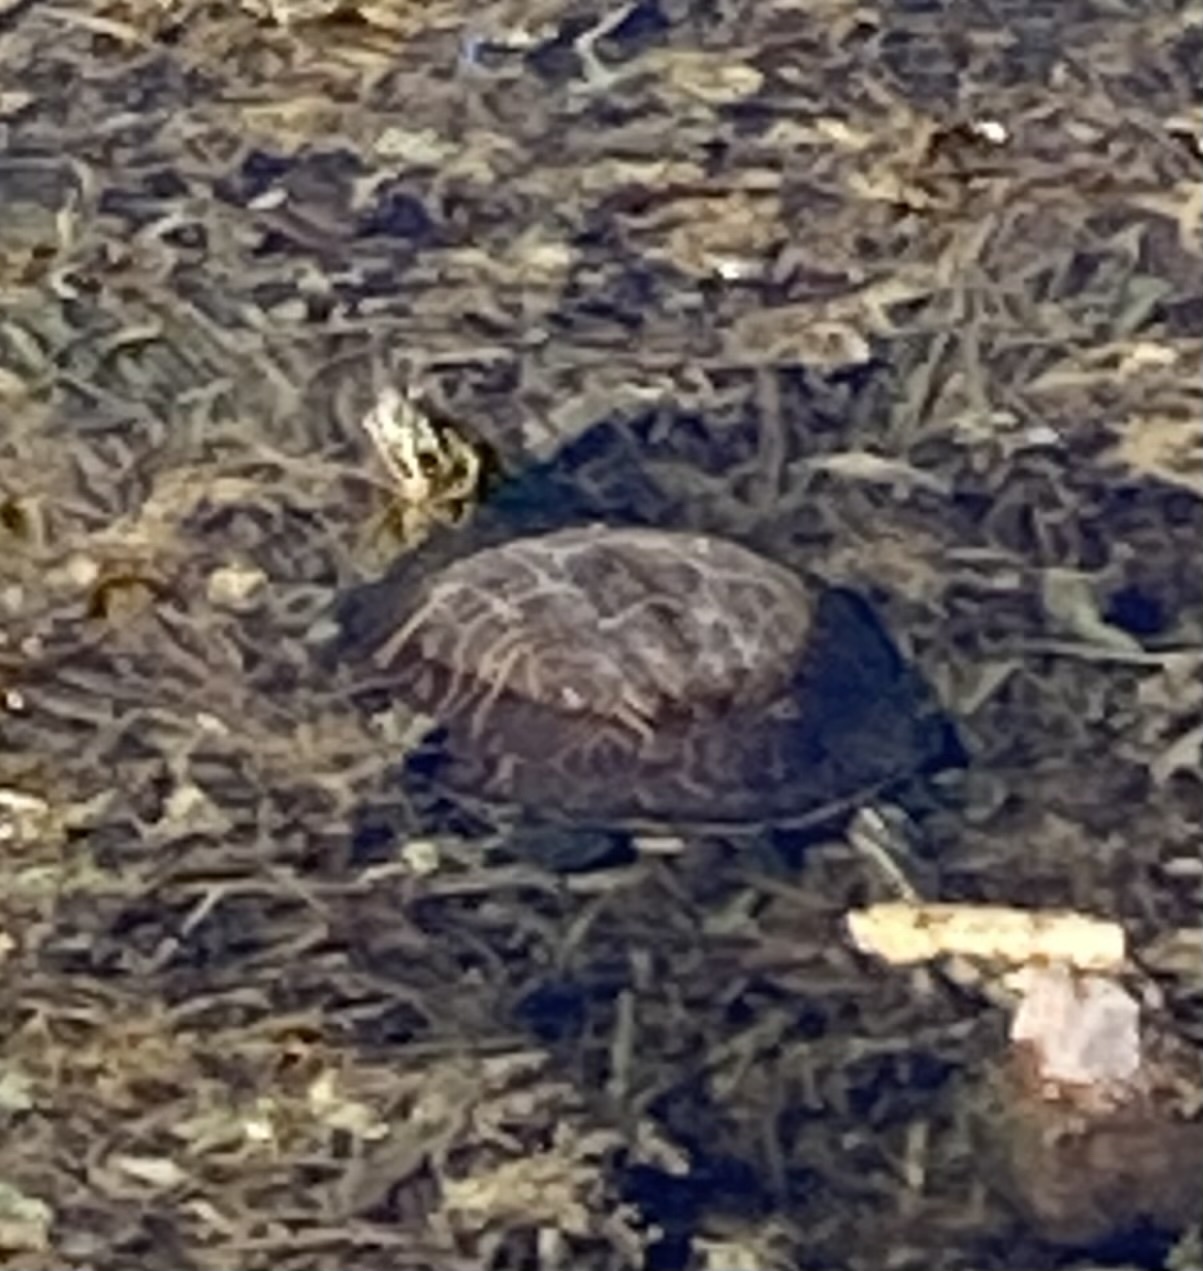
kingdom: Animalia
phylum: Chordata
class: Testudines
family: Emydidae
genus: Pseudemys
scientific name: Pseudemys peninsularis
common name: Peninsula cooter
